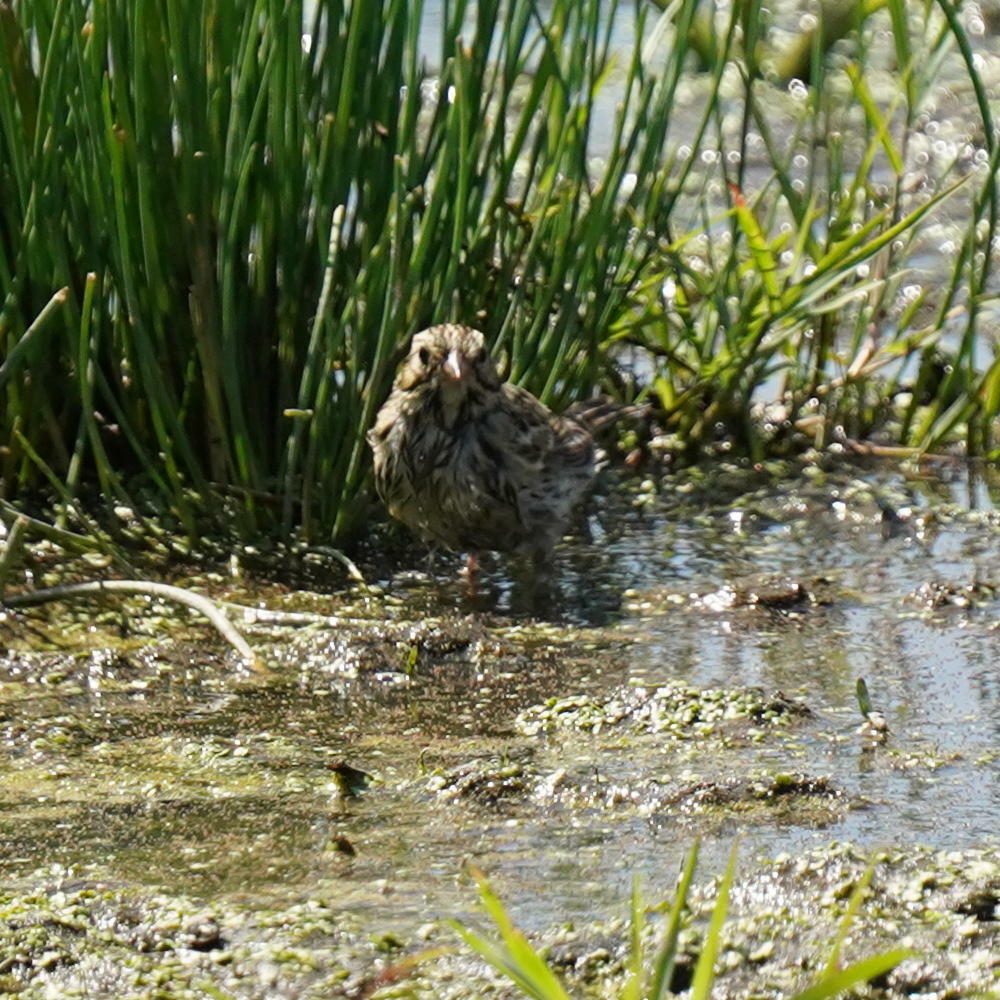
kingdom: Animalia
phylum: Chordata
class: Aves
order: Passeriformes
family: Passerellidae
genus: Melospiza
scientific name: Melospiza melodia
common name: Song sparrow
